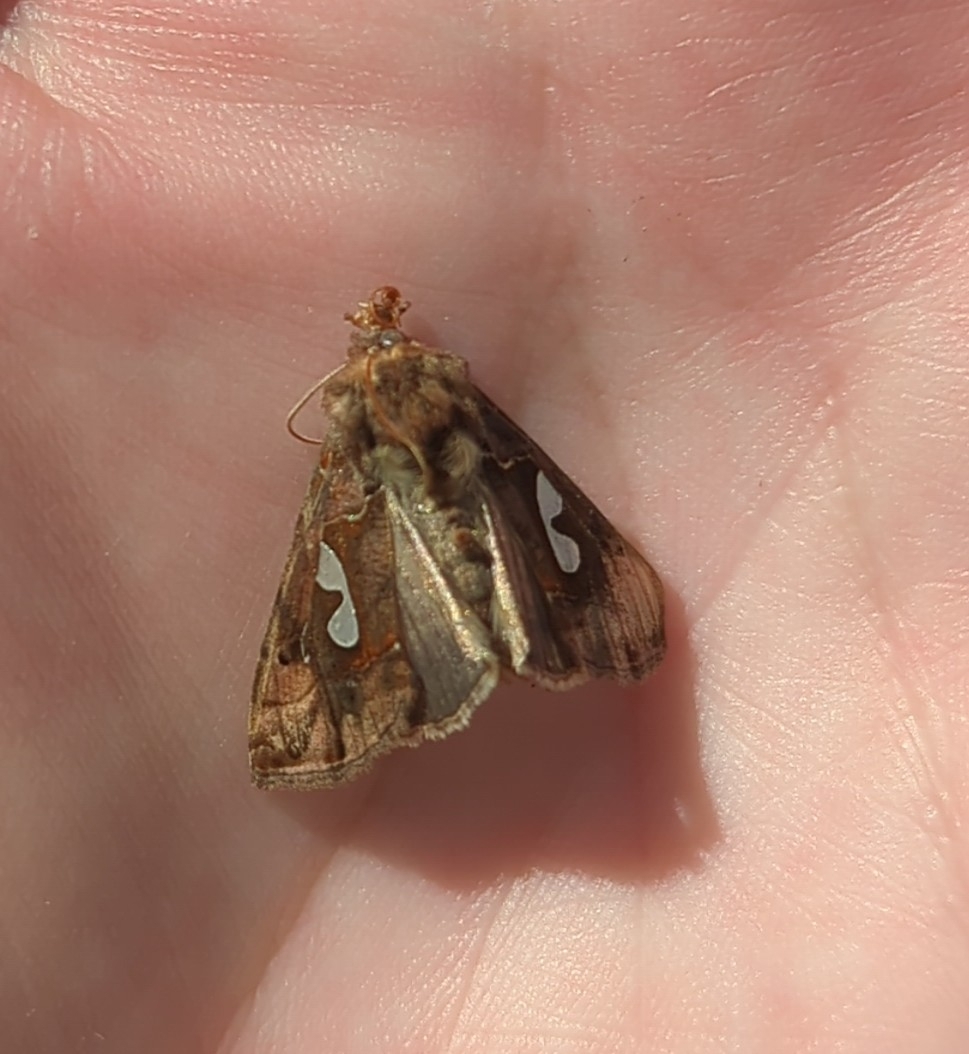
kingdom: Animalia
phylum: Arthropoda
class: Insecta
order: Lepidoptera
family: Noctuidae
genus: Megalographa
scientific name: Megalographa biloba
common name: Cutworm
